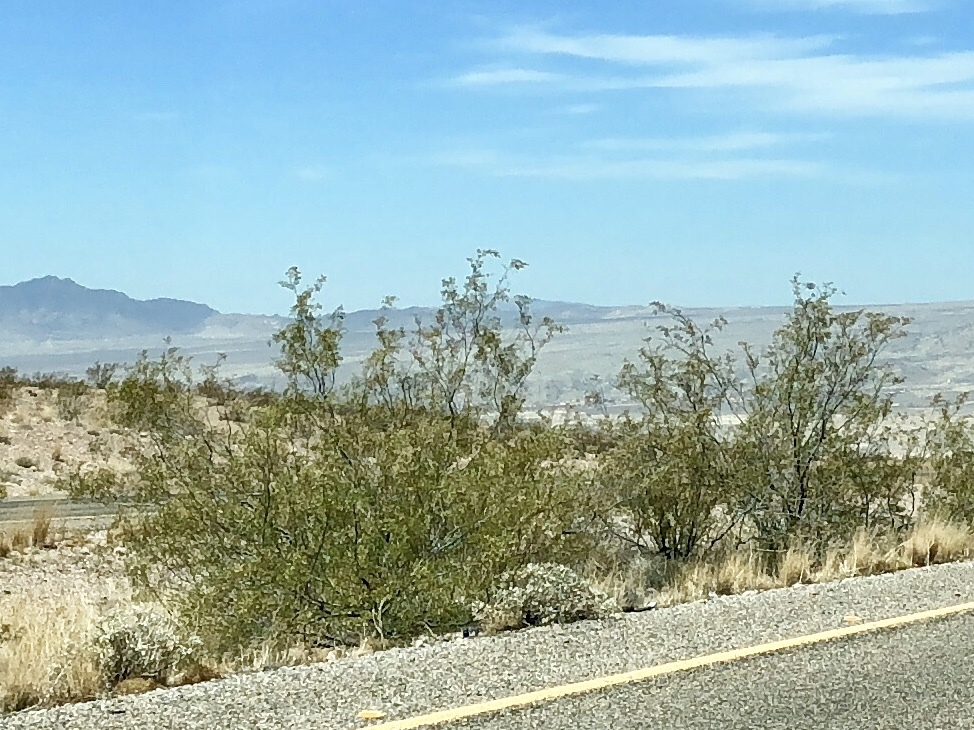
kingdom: Plantae
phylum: Tracheophyta
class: Magnoliopsida
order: Zygophyllales
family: Zygophyllaceae
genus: Larrea
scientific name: Larrea tridentata
